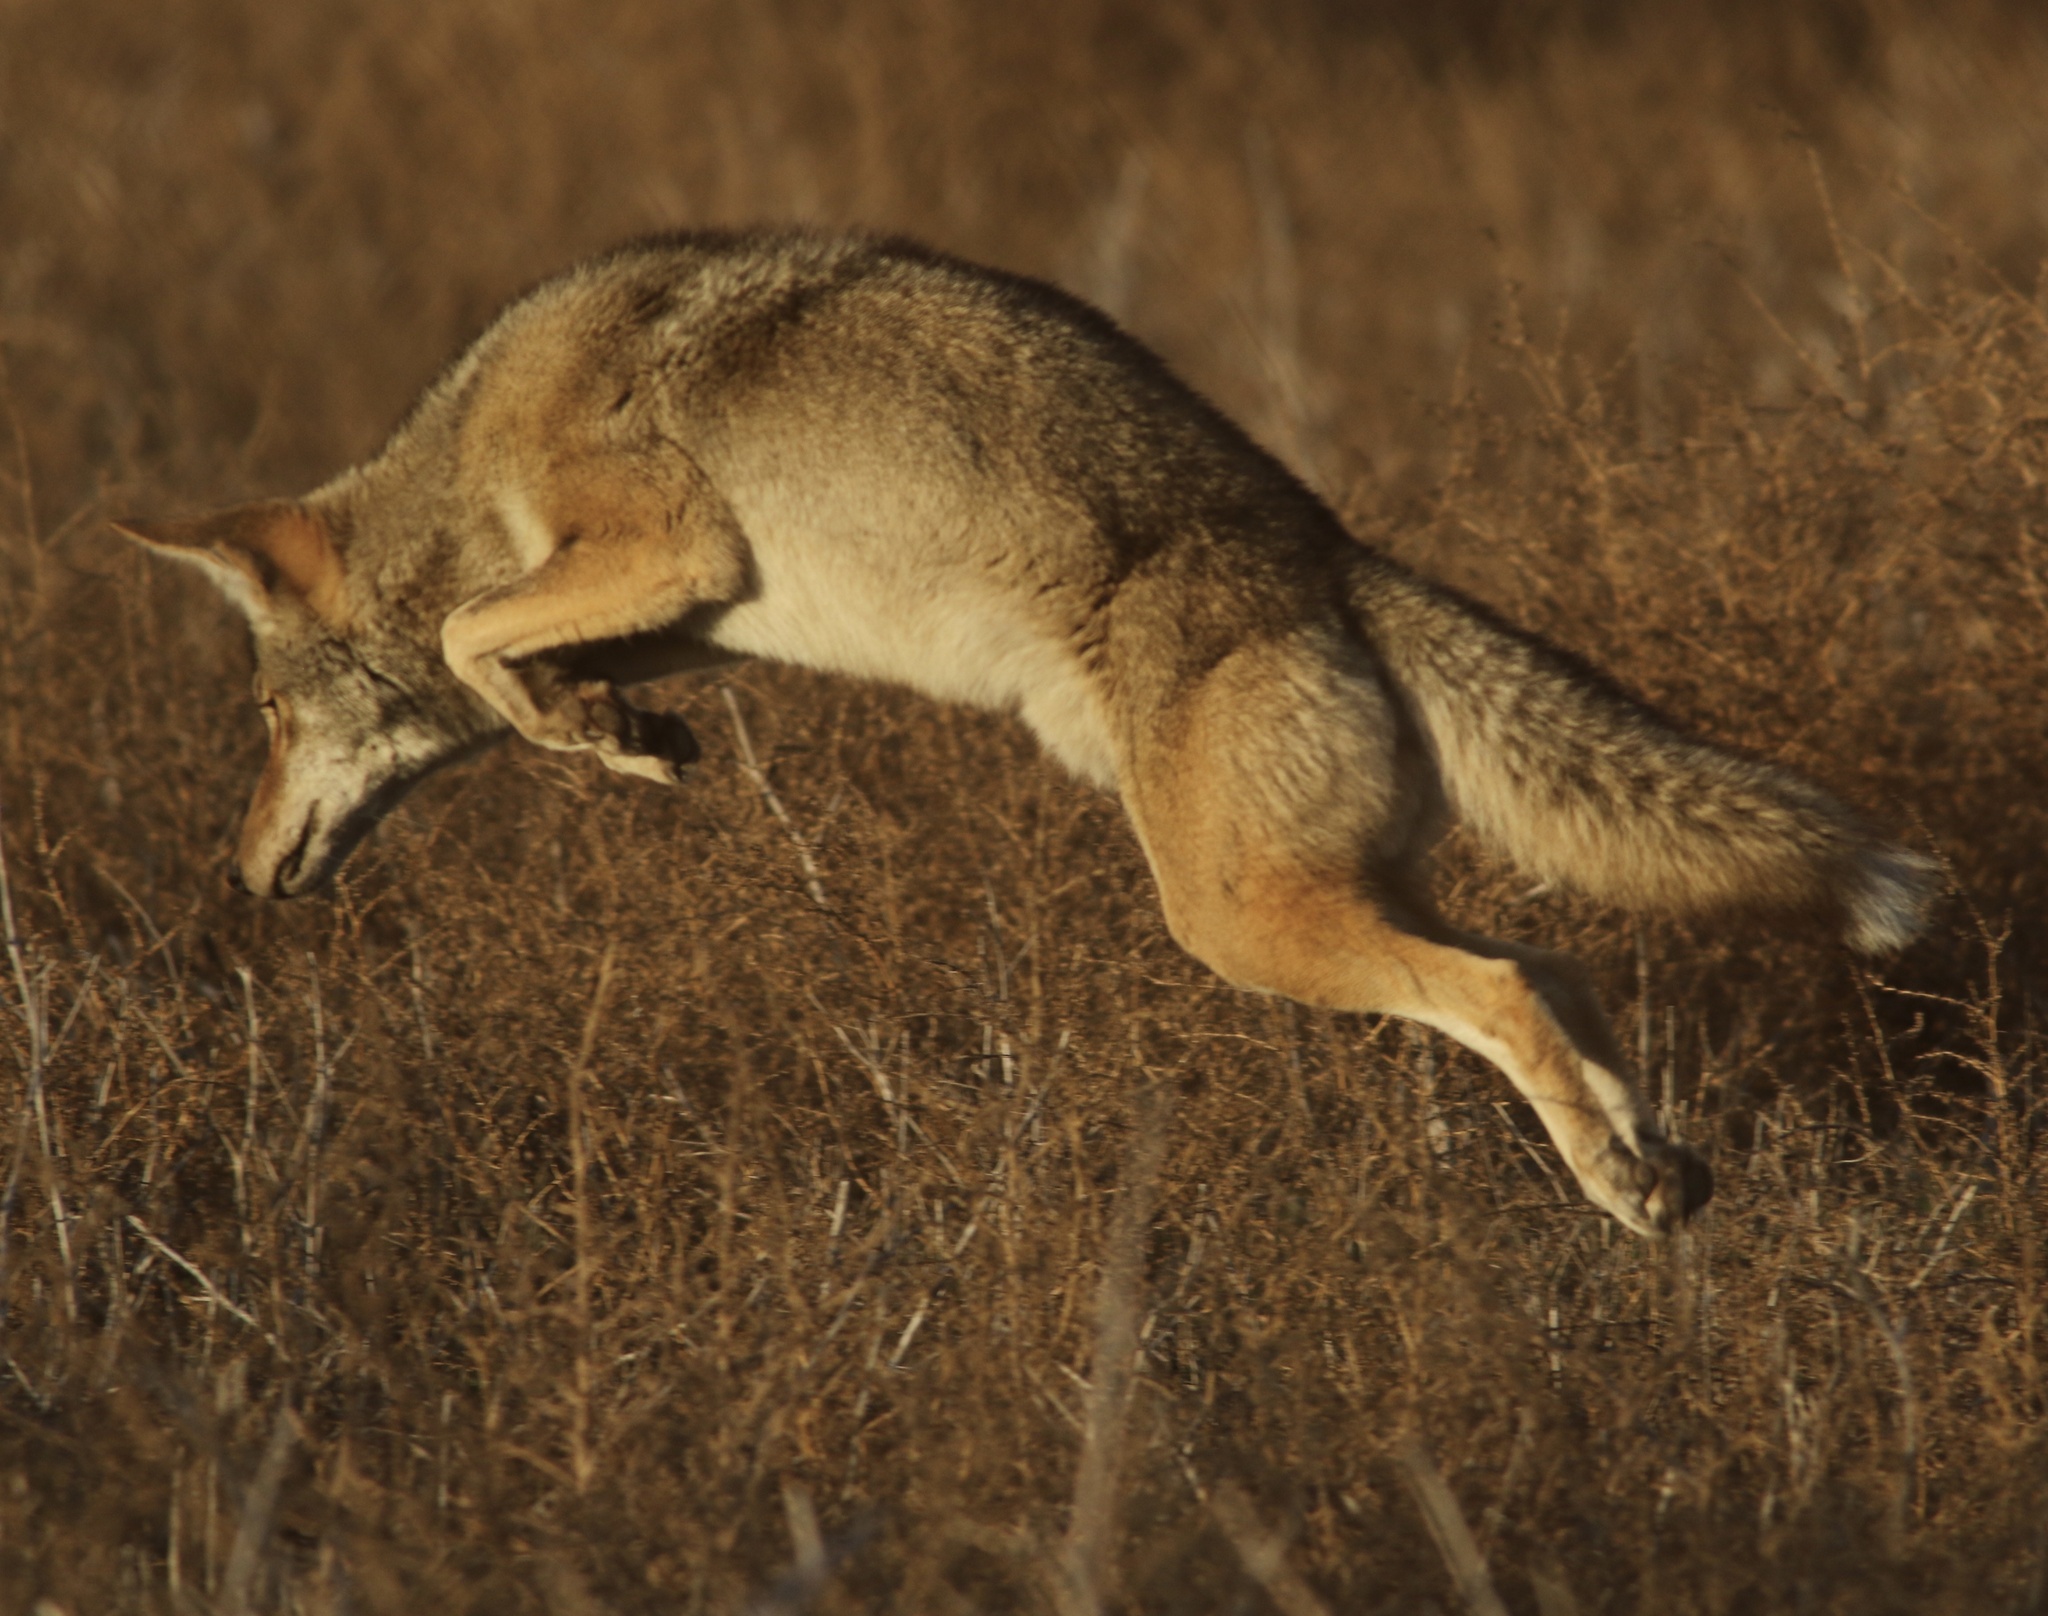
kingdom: Animalia
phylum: Chordata
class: Mammalia
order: Carnivora
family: Canidae
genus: Canis
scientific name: Canis latrans
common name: Coyote
